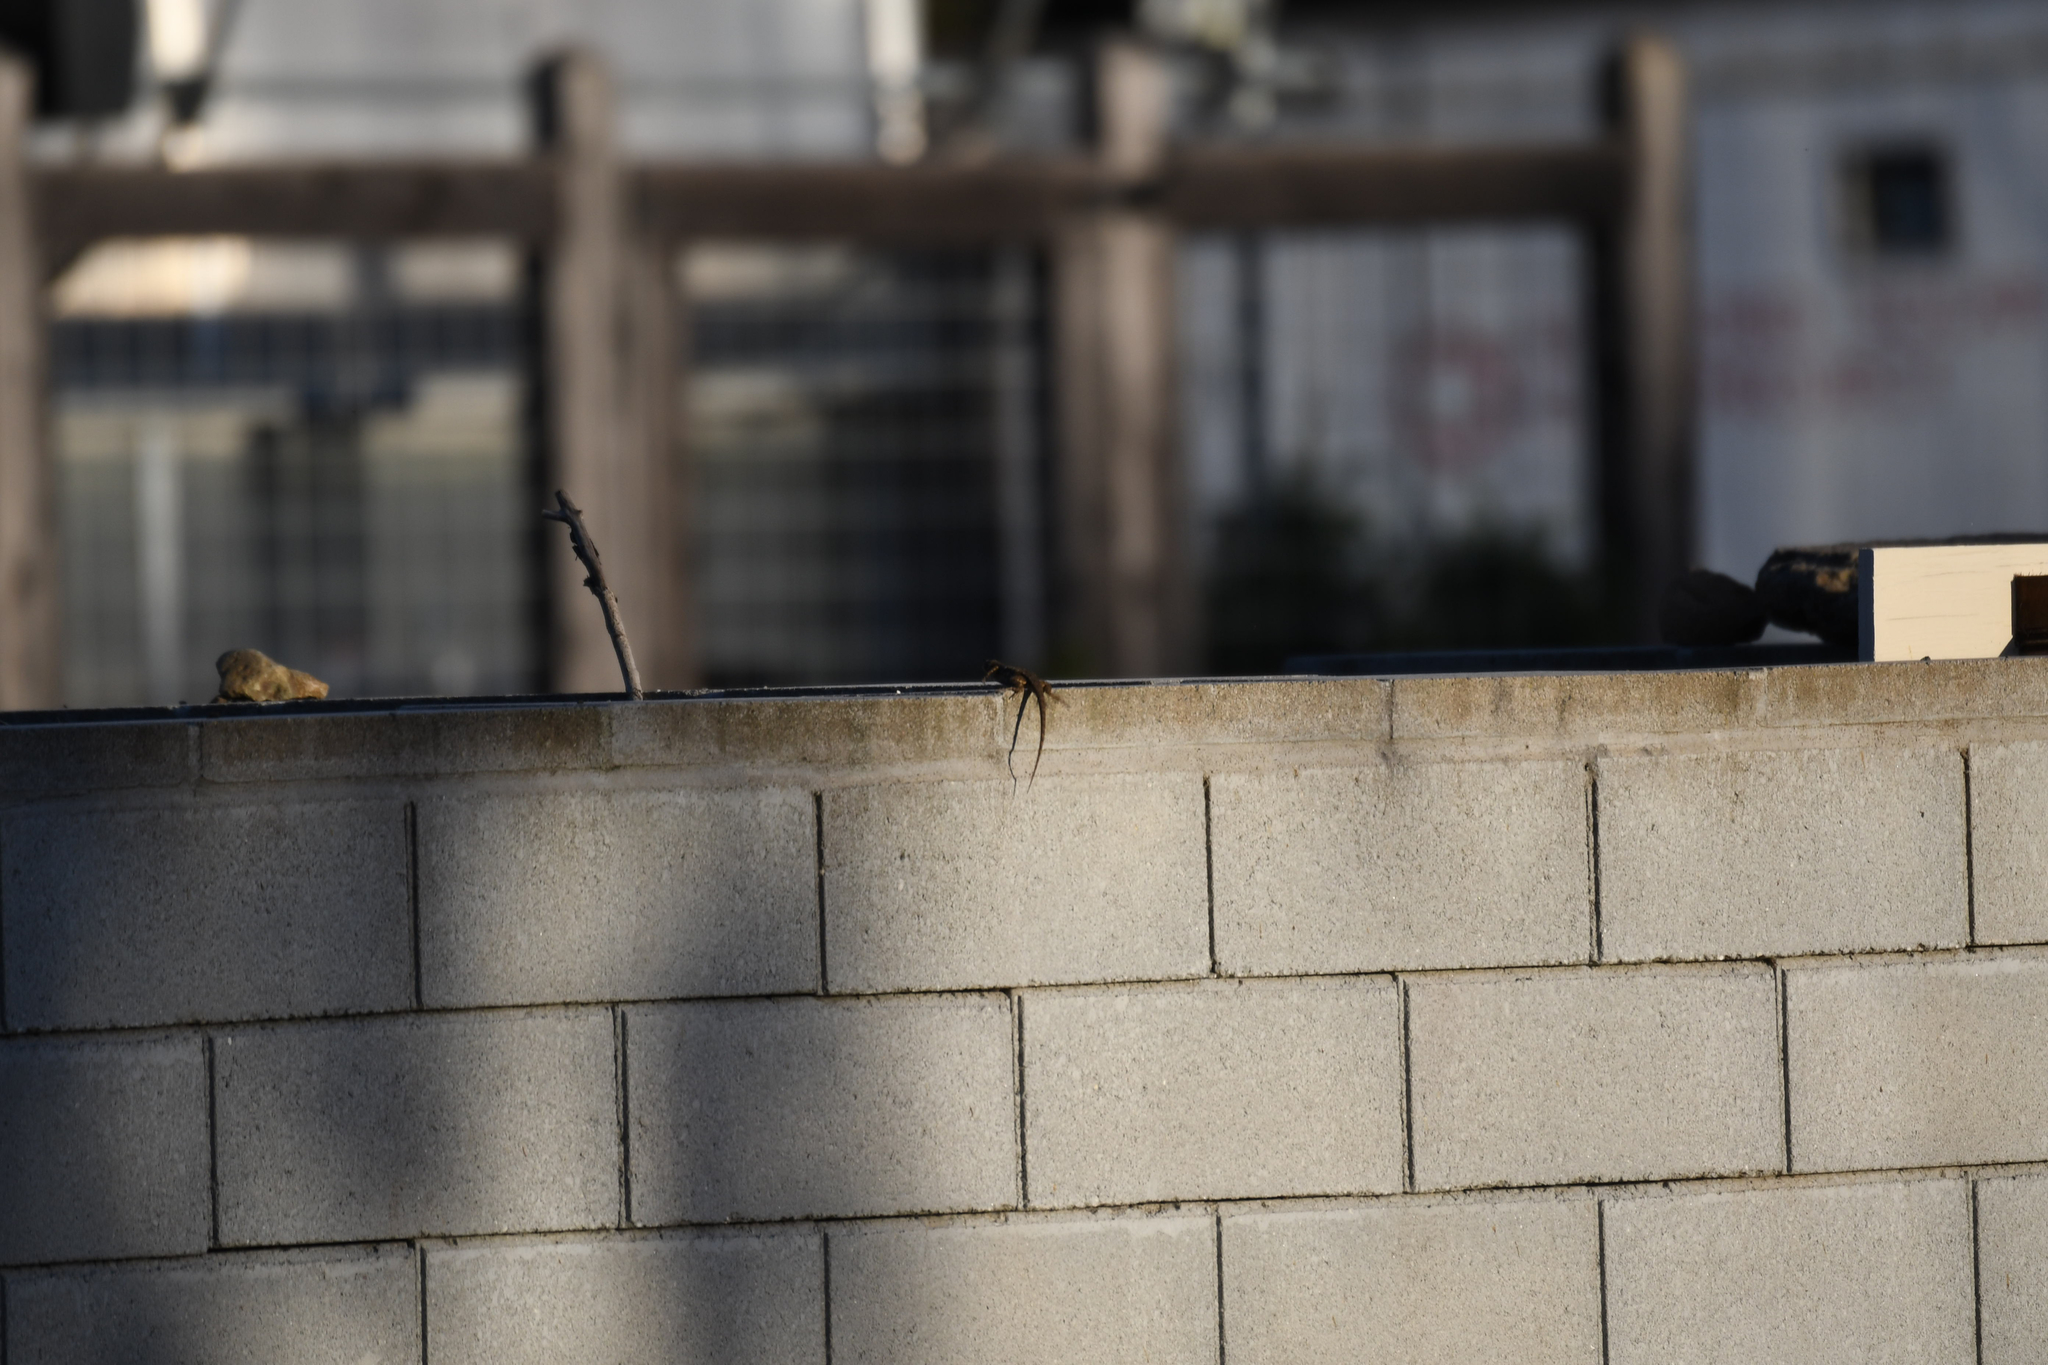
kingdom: Animalia
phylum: Chordata
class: Squamata
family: Phrynosomatidae
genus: Sceloporus
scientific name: Sceloporus occidentalis
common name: Western fence lizard
